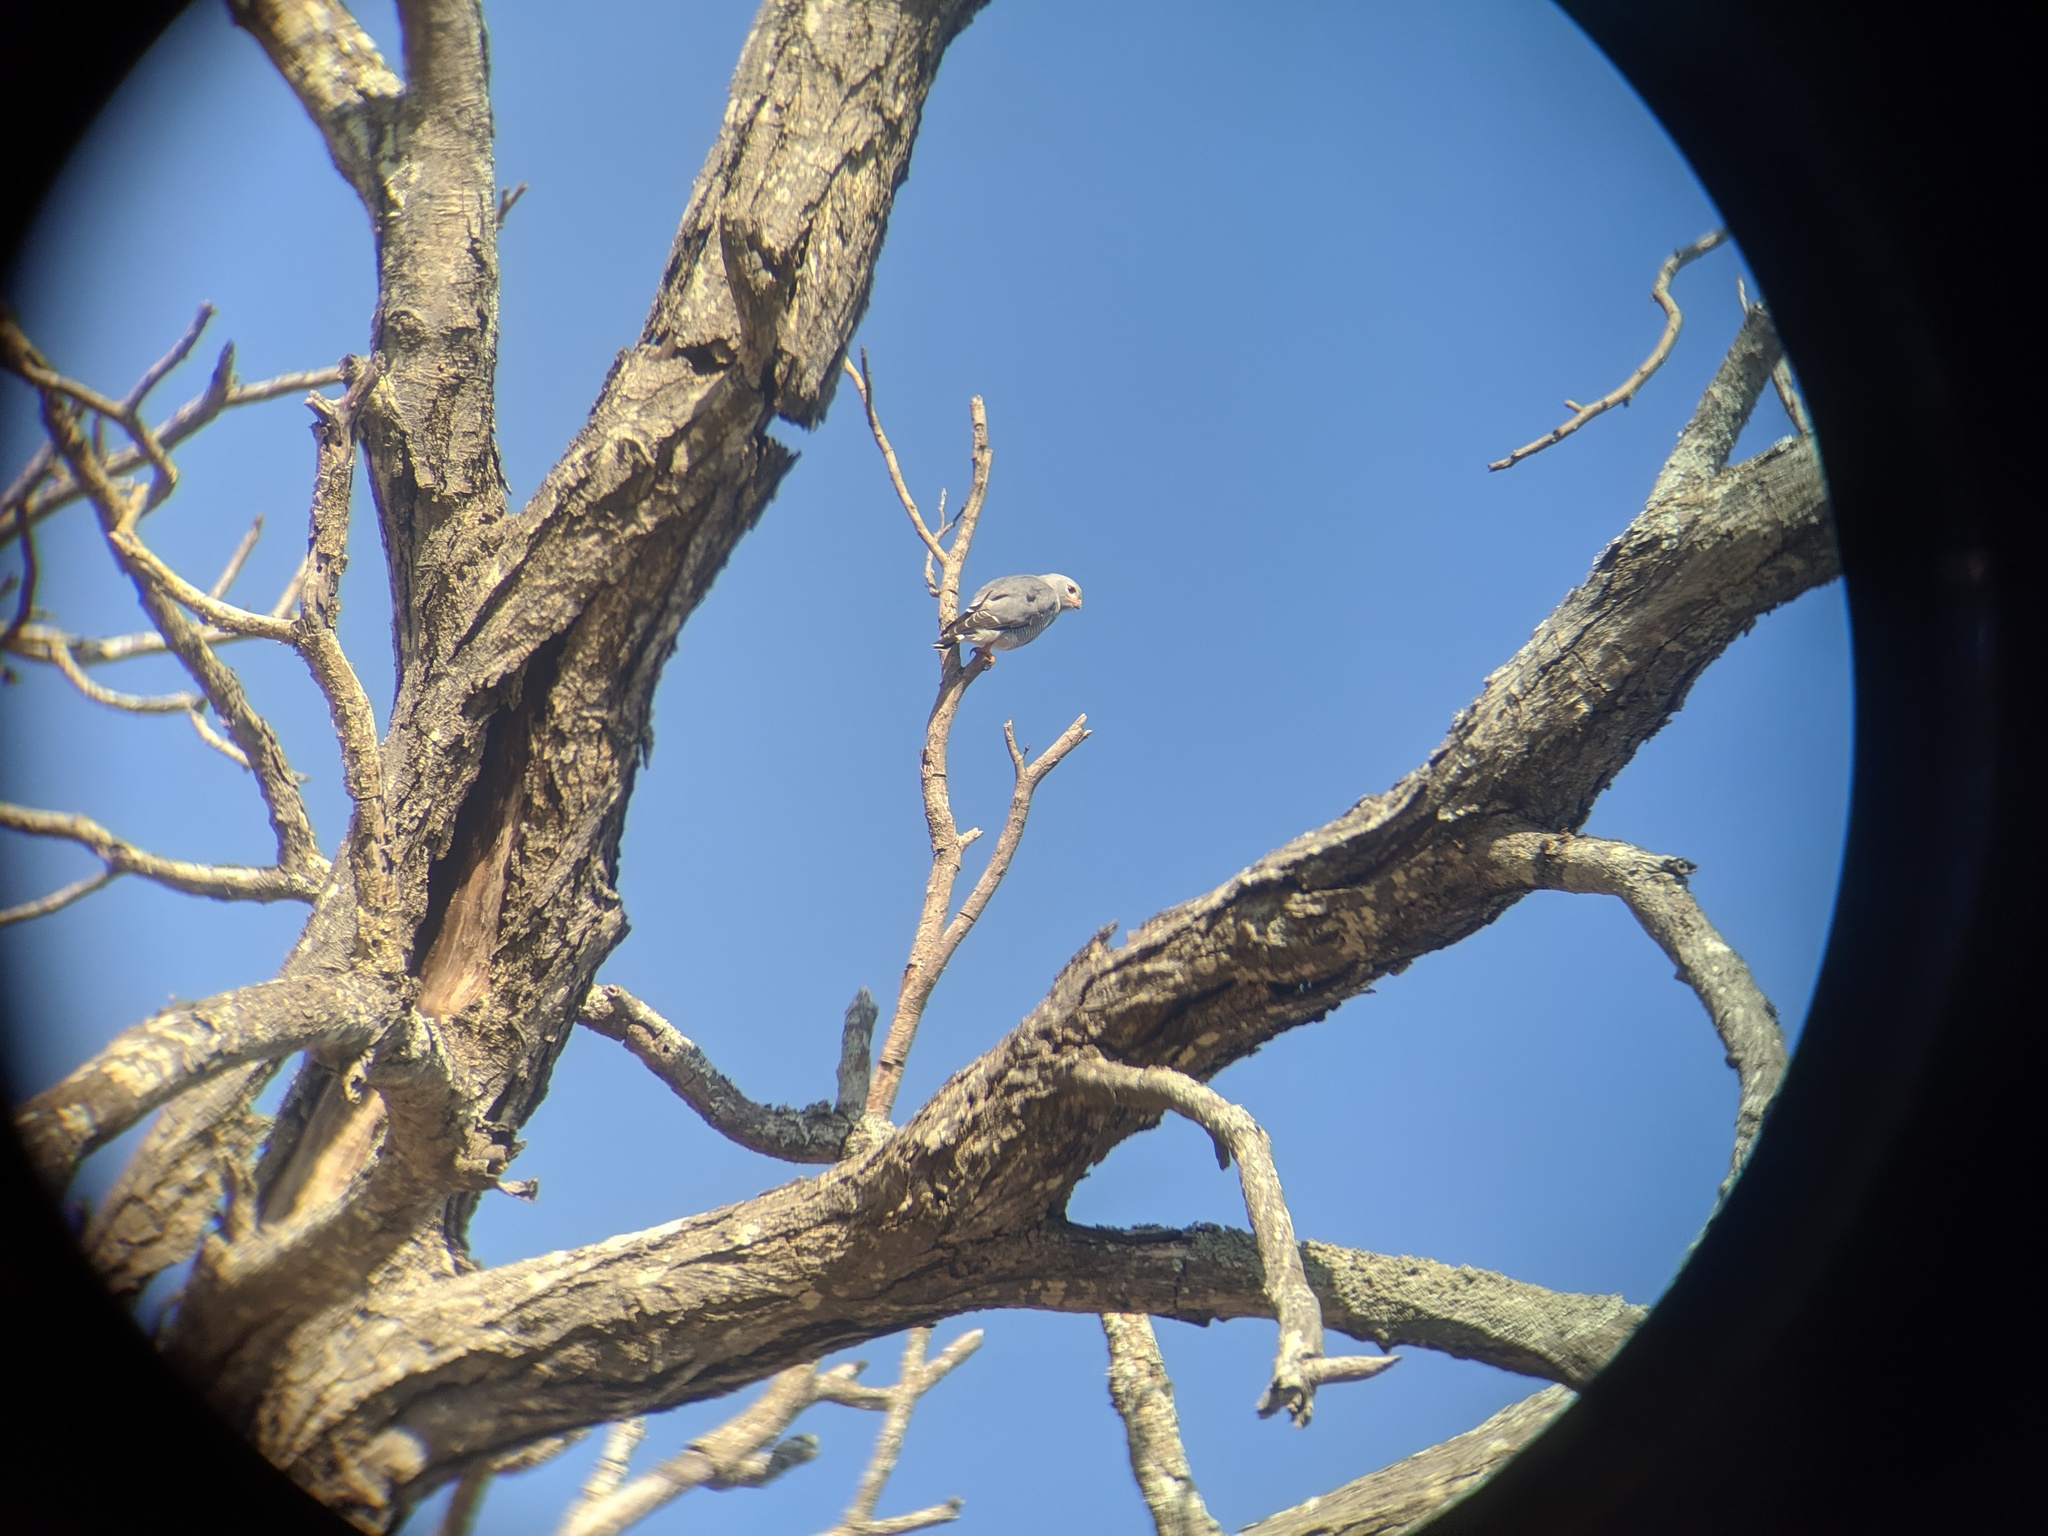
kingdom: Animalia
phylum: Chordata
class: Aves
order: Accipitriformes
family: Accipitridae
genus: Kaupifalco
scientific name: Kaupifalco monogrammicus
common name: Lizard buzzard
